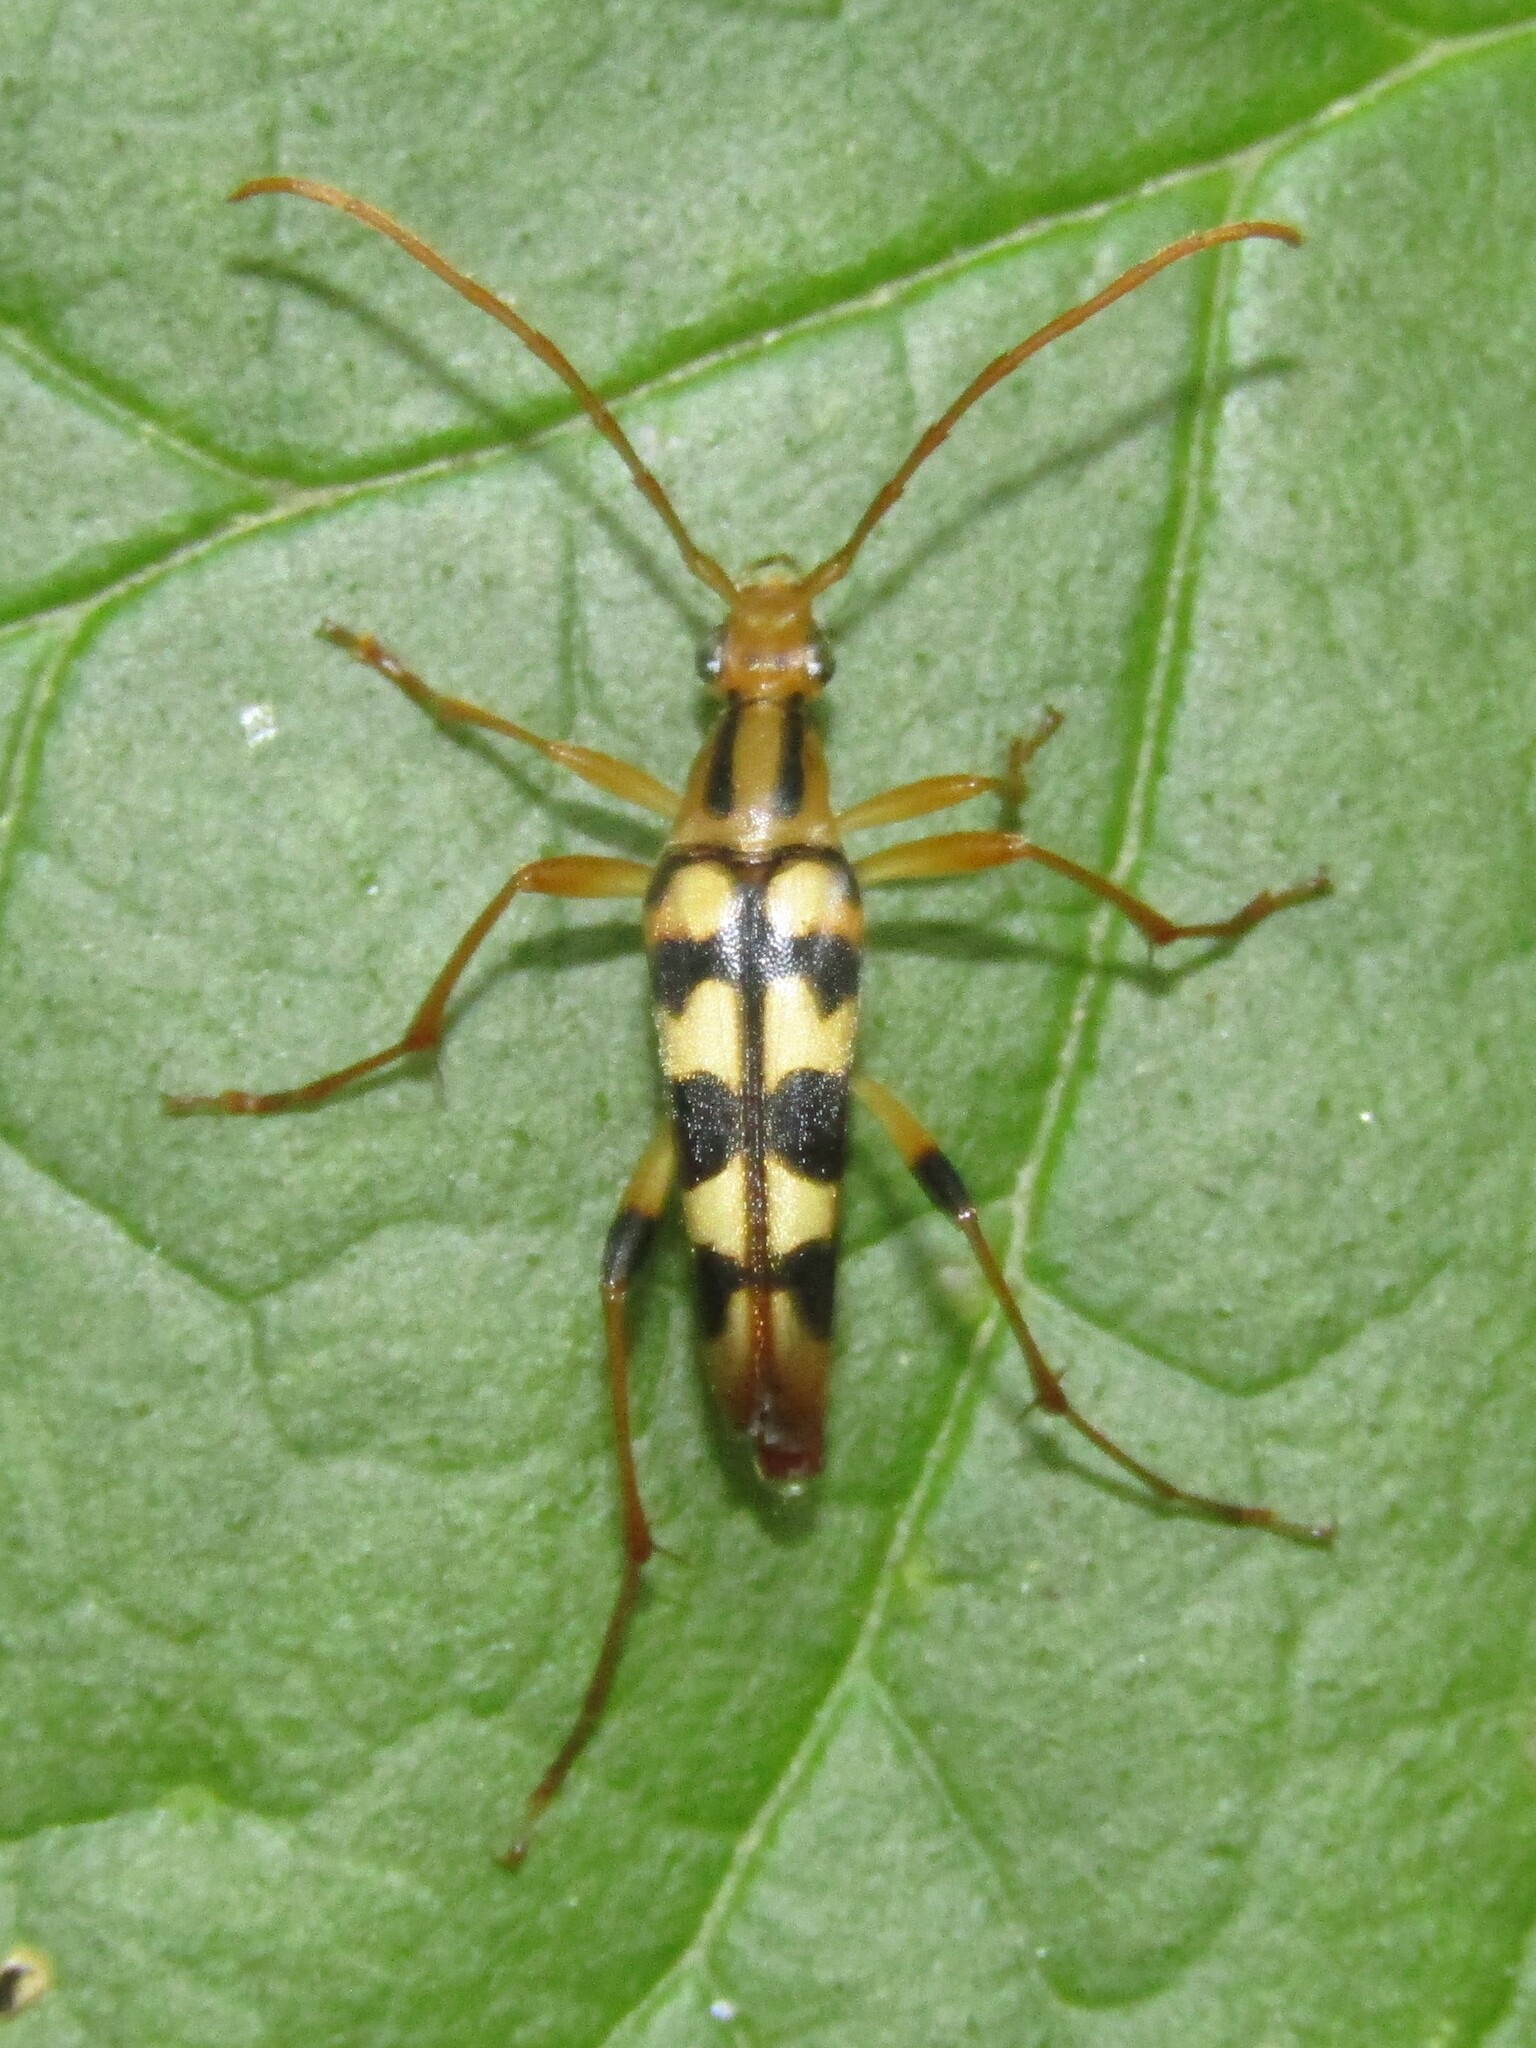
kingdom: Animalia
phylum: Arthropoda
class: Insecta
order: Coleoptera
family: Cerambycidae
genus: Strangalia
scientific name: Strangalia luteicornis
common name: Yellow-horned flower longhorn beetle
